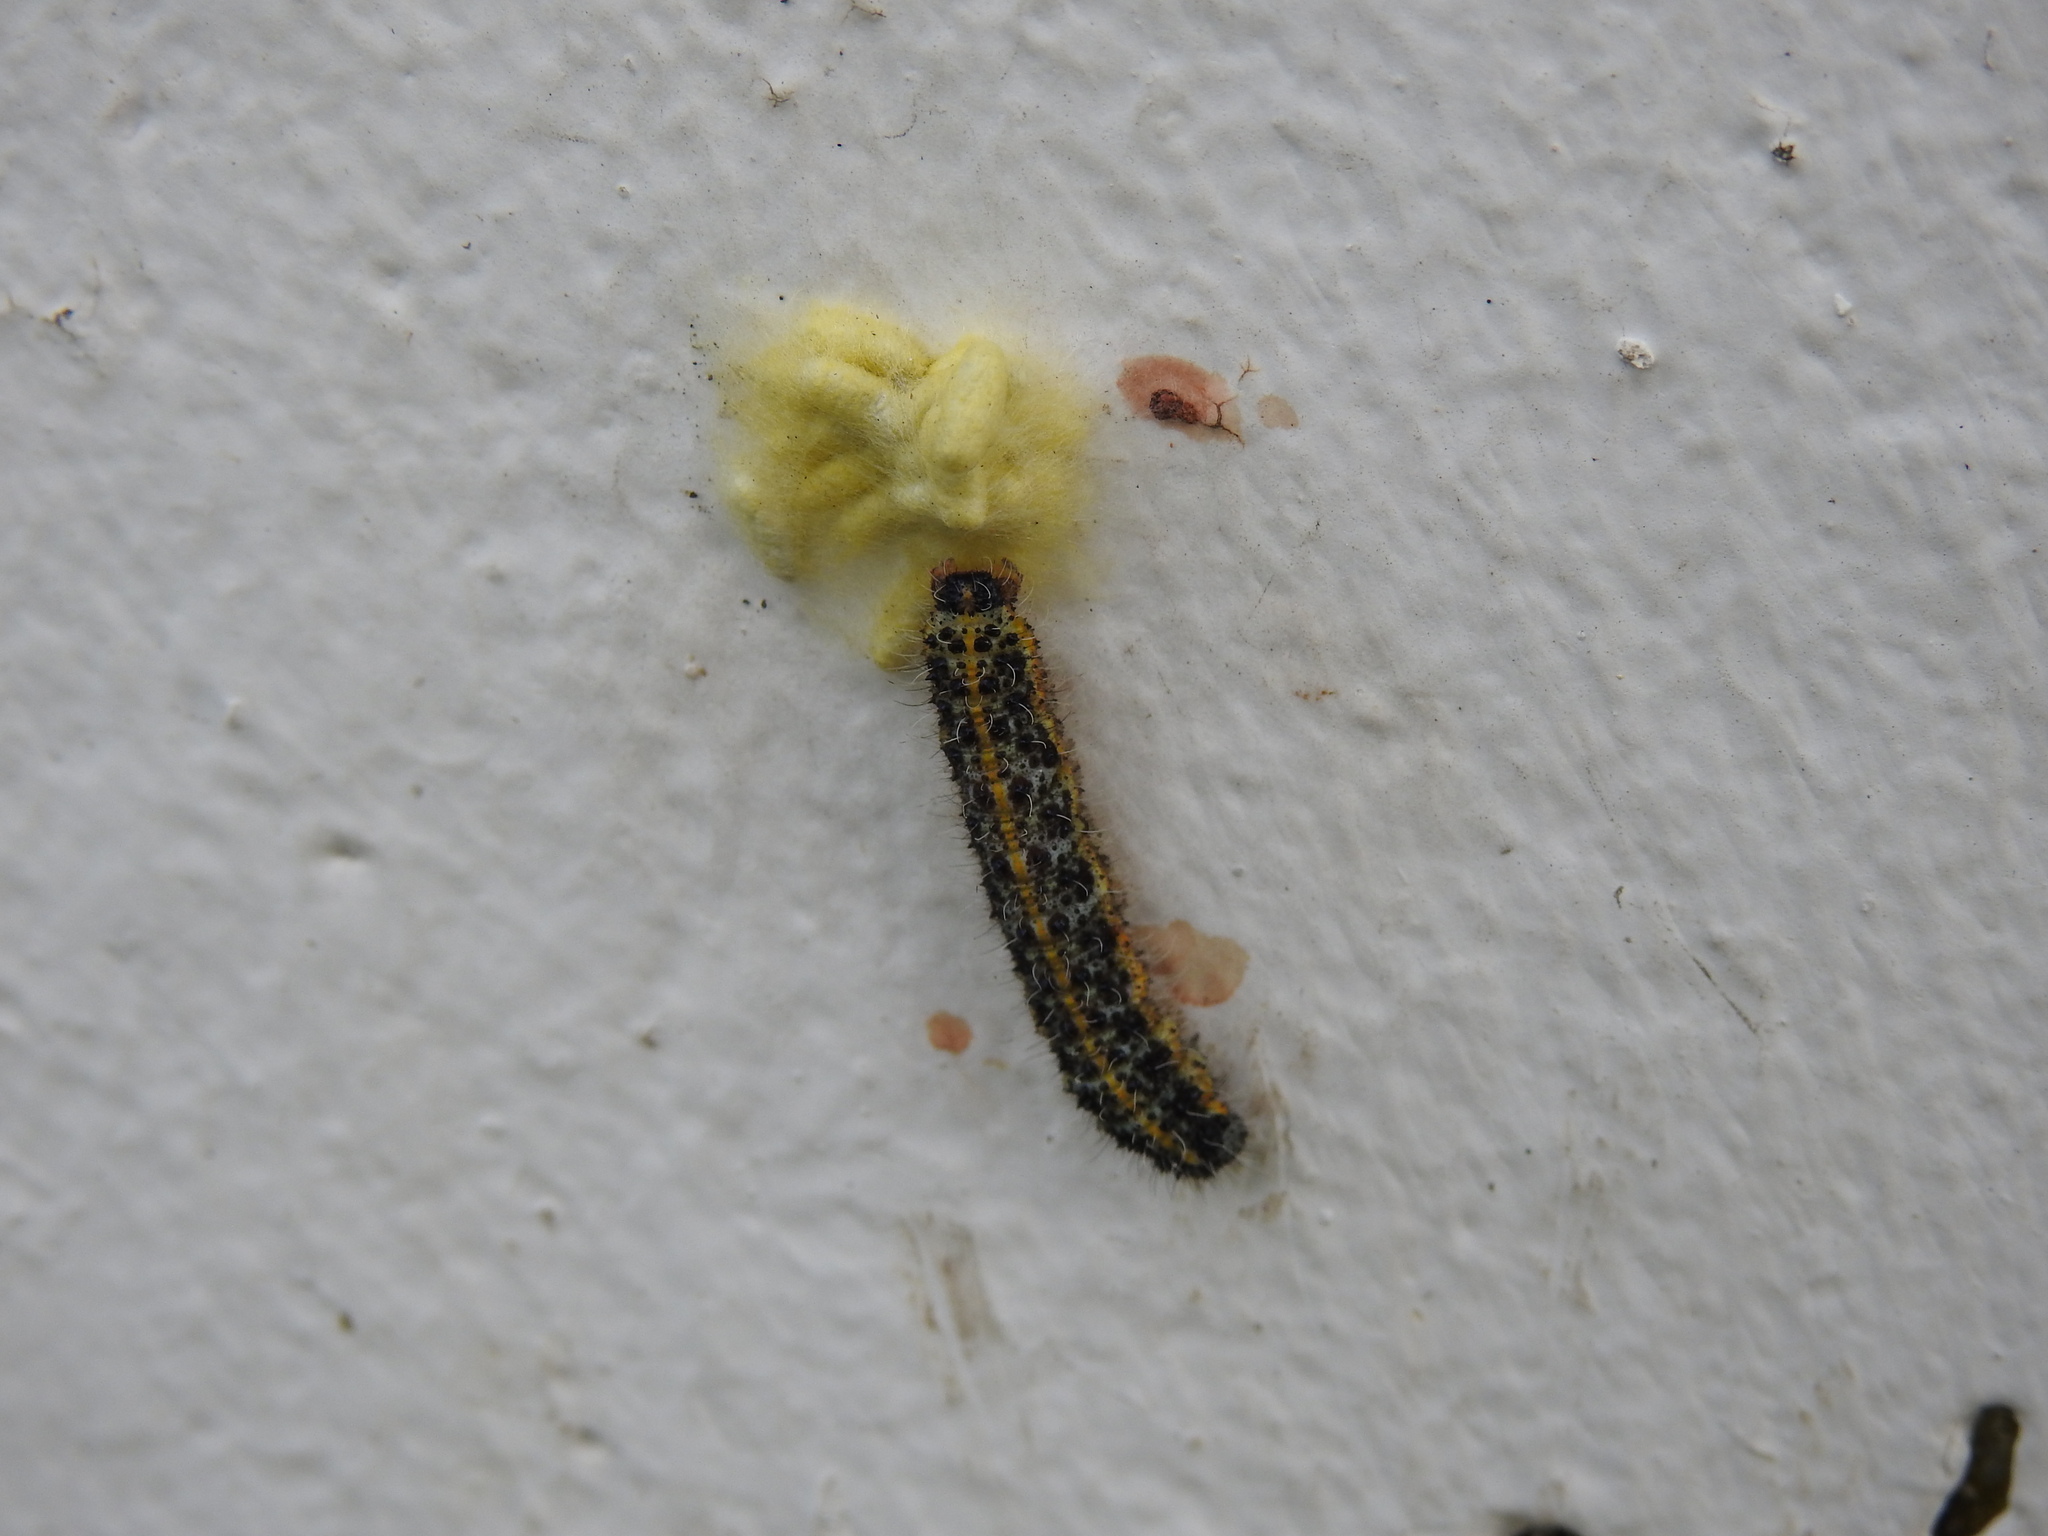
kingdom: Animalia
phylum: Arthropoda
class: Insecta
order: Hymenoptera
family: Braconidae
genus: Cotesia
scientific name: Cotesia glomerata
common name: Parasitoid wasp
